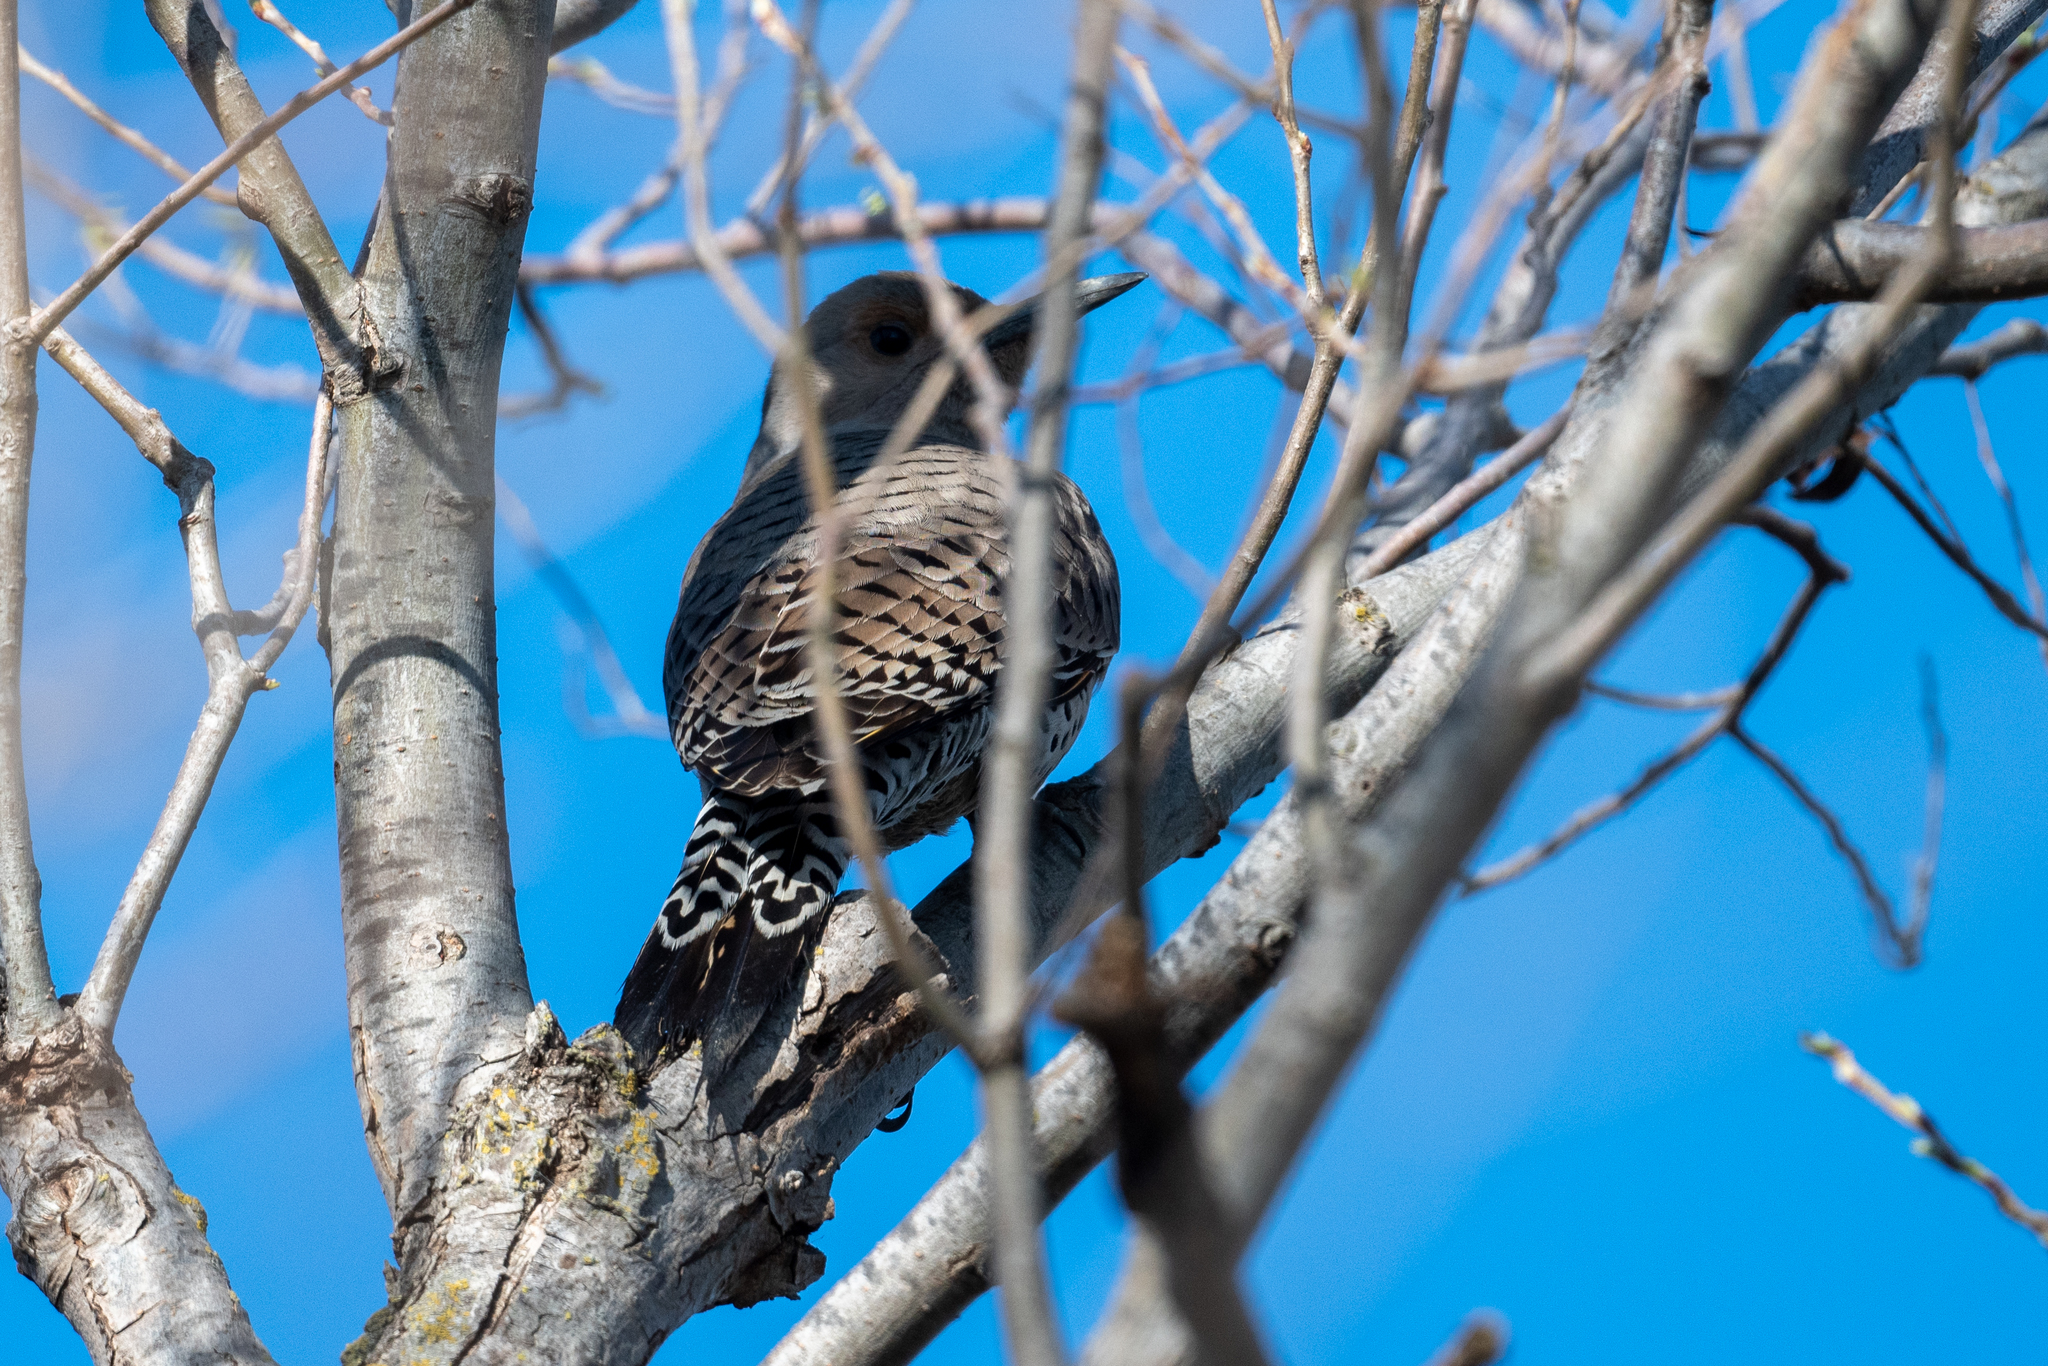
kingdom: Animalia
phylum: Chordata
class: Aves
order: Piciformes
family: Picidae
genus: Colaptes
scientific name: Colaptes auratus
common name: Northern flicker
